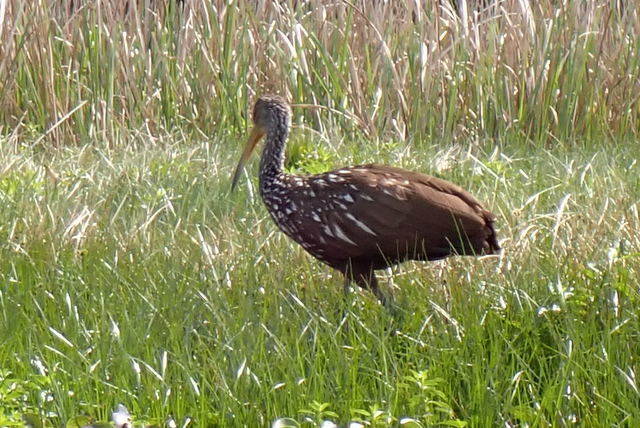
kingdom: Animalia
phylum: Chordata
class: Aves
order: Gruiformes
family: Aramidae
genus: Aramus
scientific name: Aramus guarauna
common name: Limpkin
